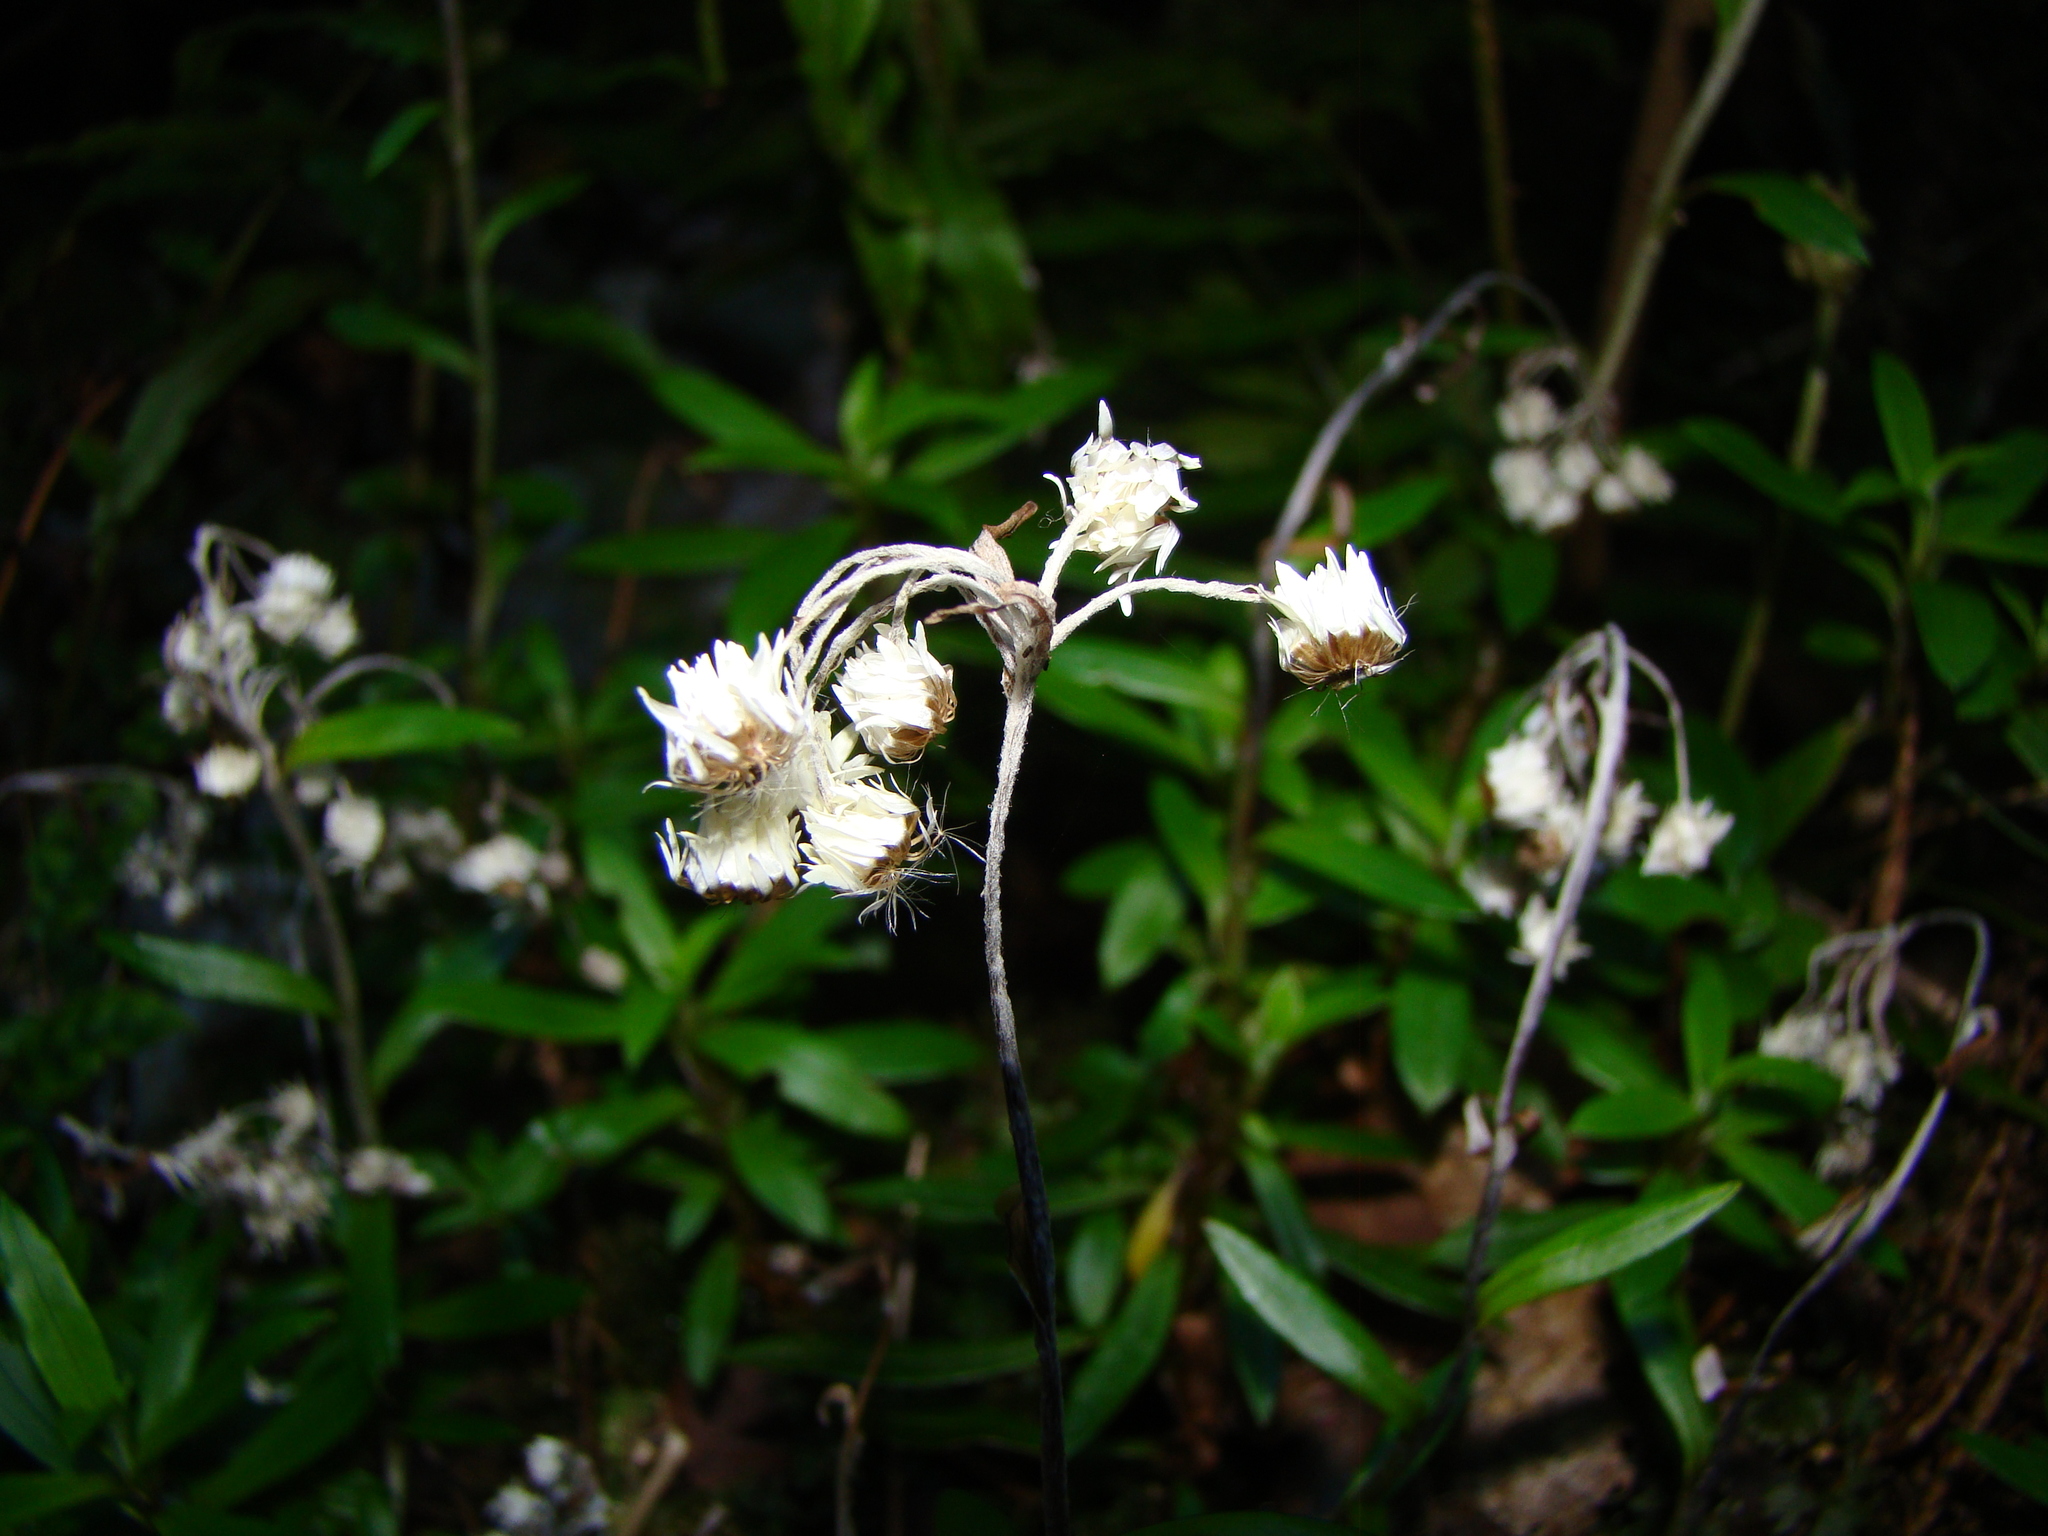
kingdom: Plantae
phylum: Tracheophyta
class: Magnoliopsida
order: Asterales
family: Asteraceae
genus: Anaphalioides
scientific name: Anaphalioides trinervis
